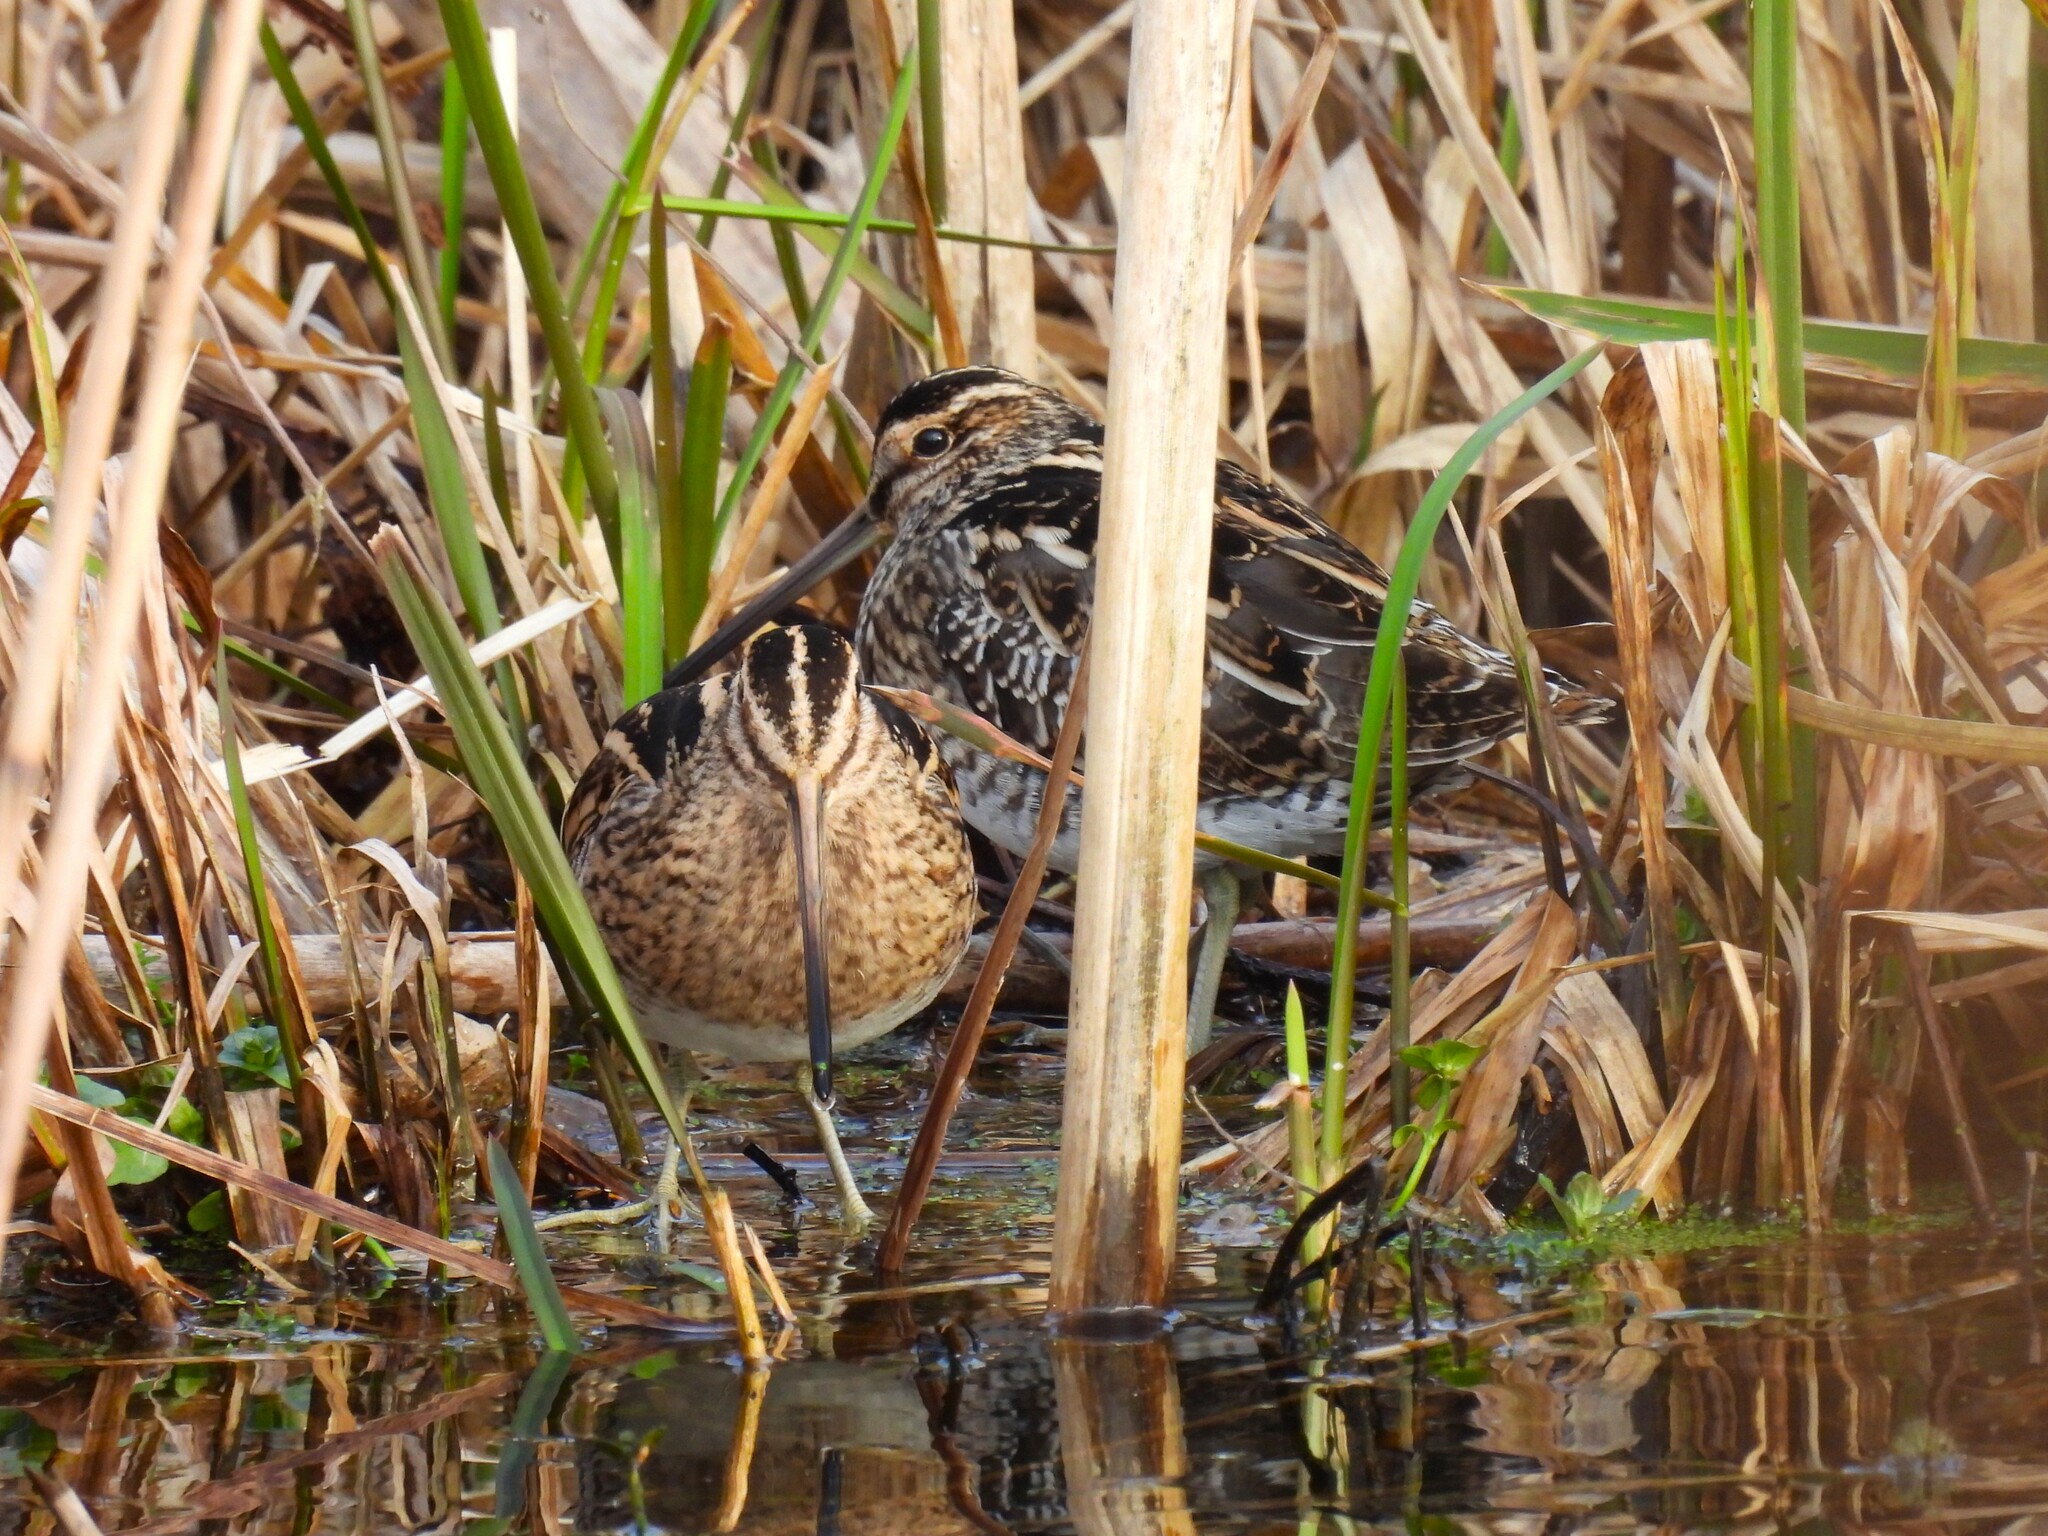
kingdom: Animalia
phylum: Chordata
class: Aves
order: Charadriiformes
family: Scolopacidae
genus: Gallinago
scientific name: Gallinago gallinago
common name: Common snipe
